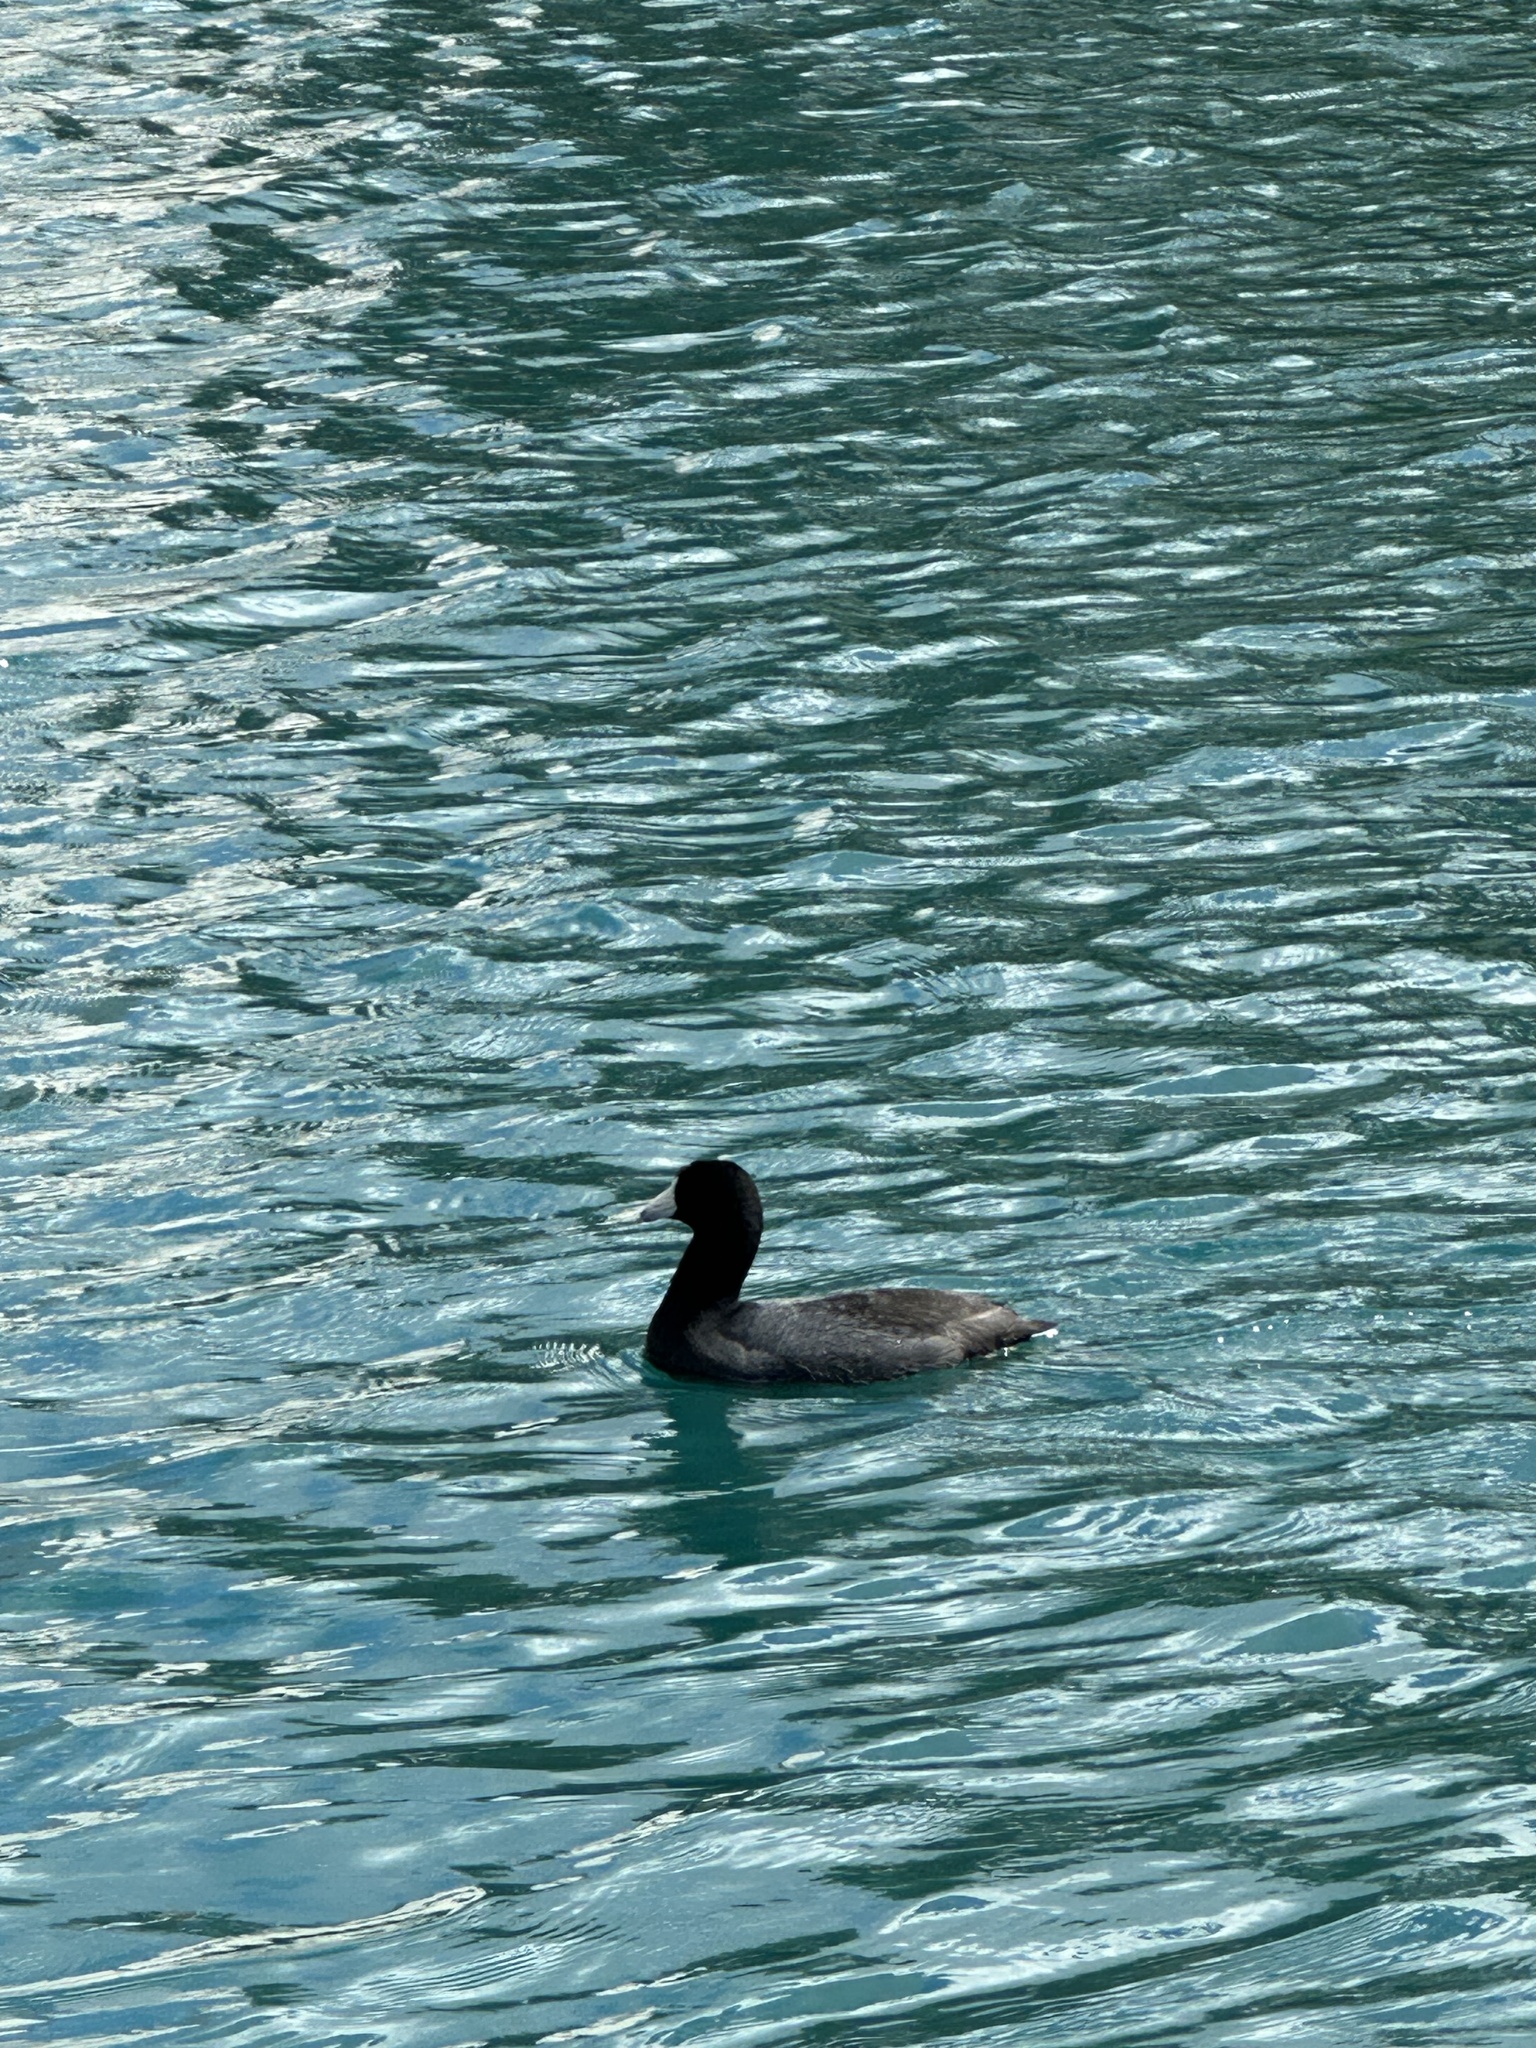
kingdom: Animalia
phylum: Chordata
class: Aves
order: Gruiformes
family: Rallidae
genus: Fulica
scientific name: Fulica americana
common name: American coot
